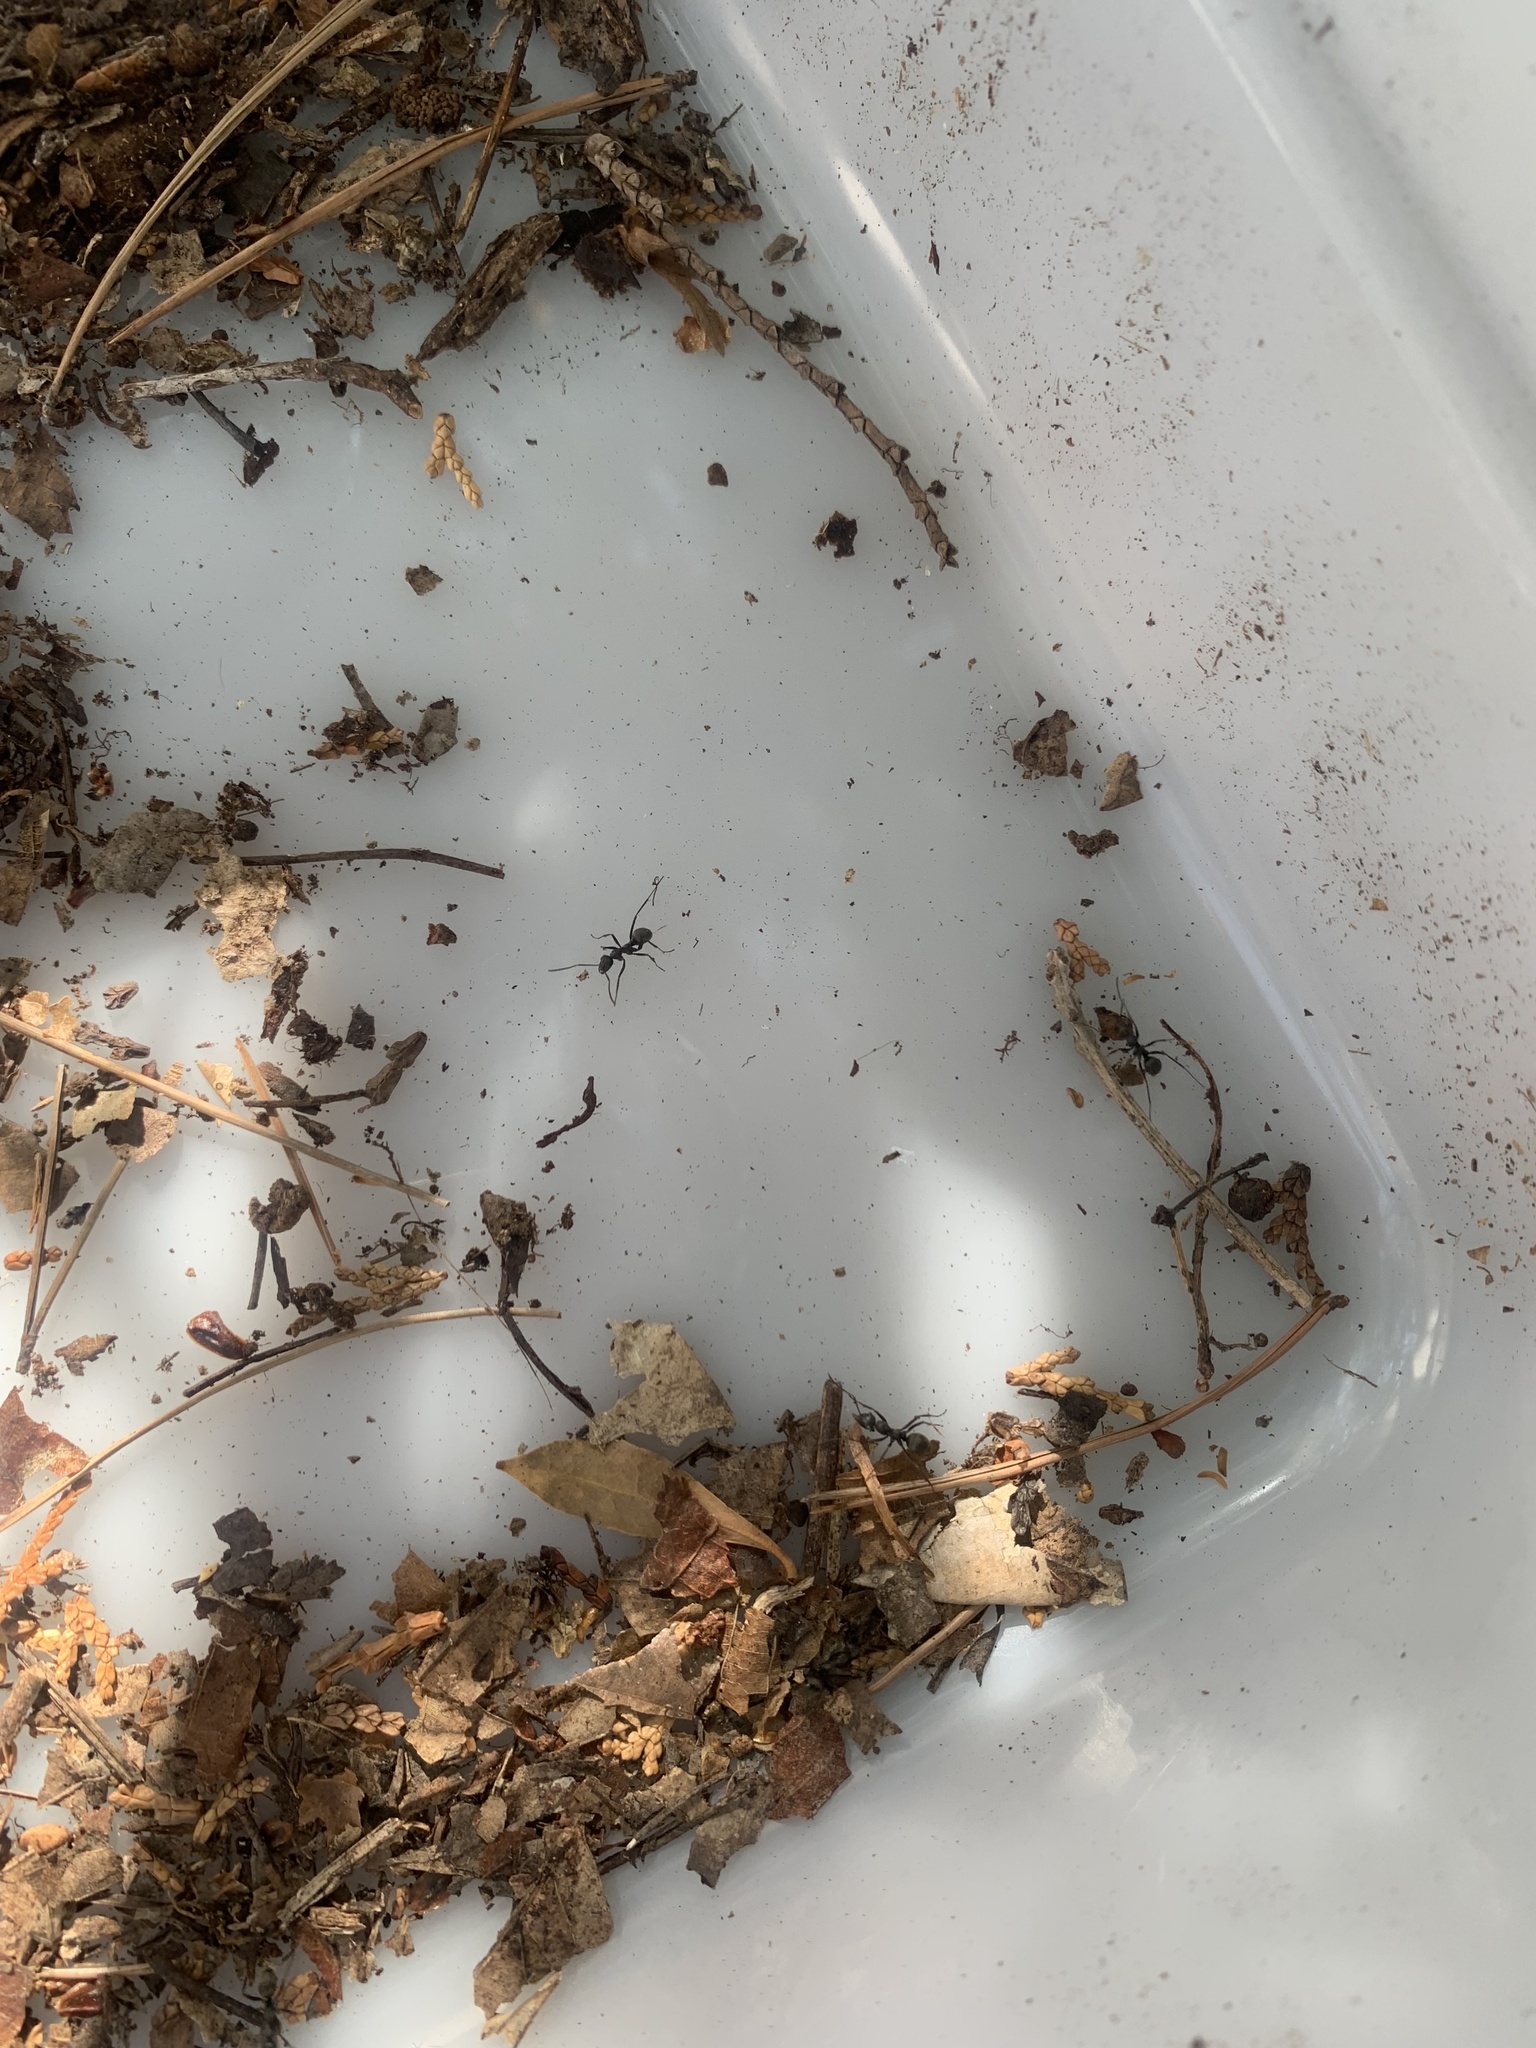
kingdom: Animalia
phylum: Arthropoda
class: Insecta
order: Hymenoptera
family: Formicidae
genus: Formica
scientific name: Formica japonica
